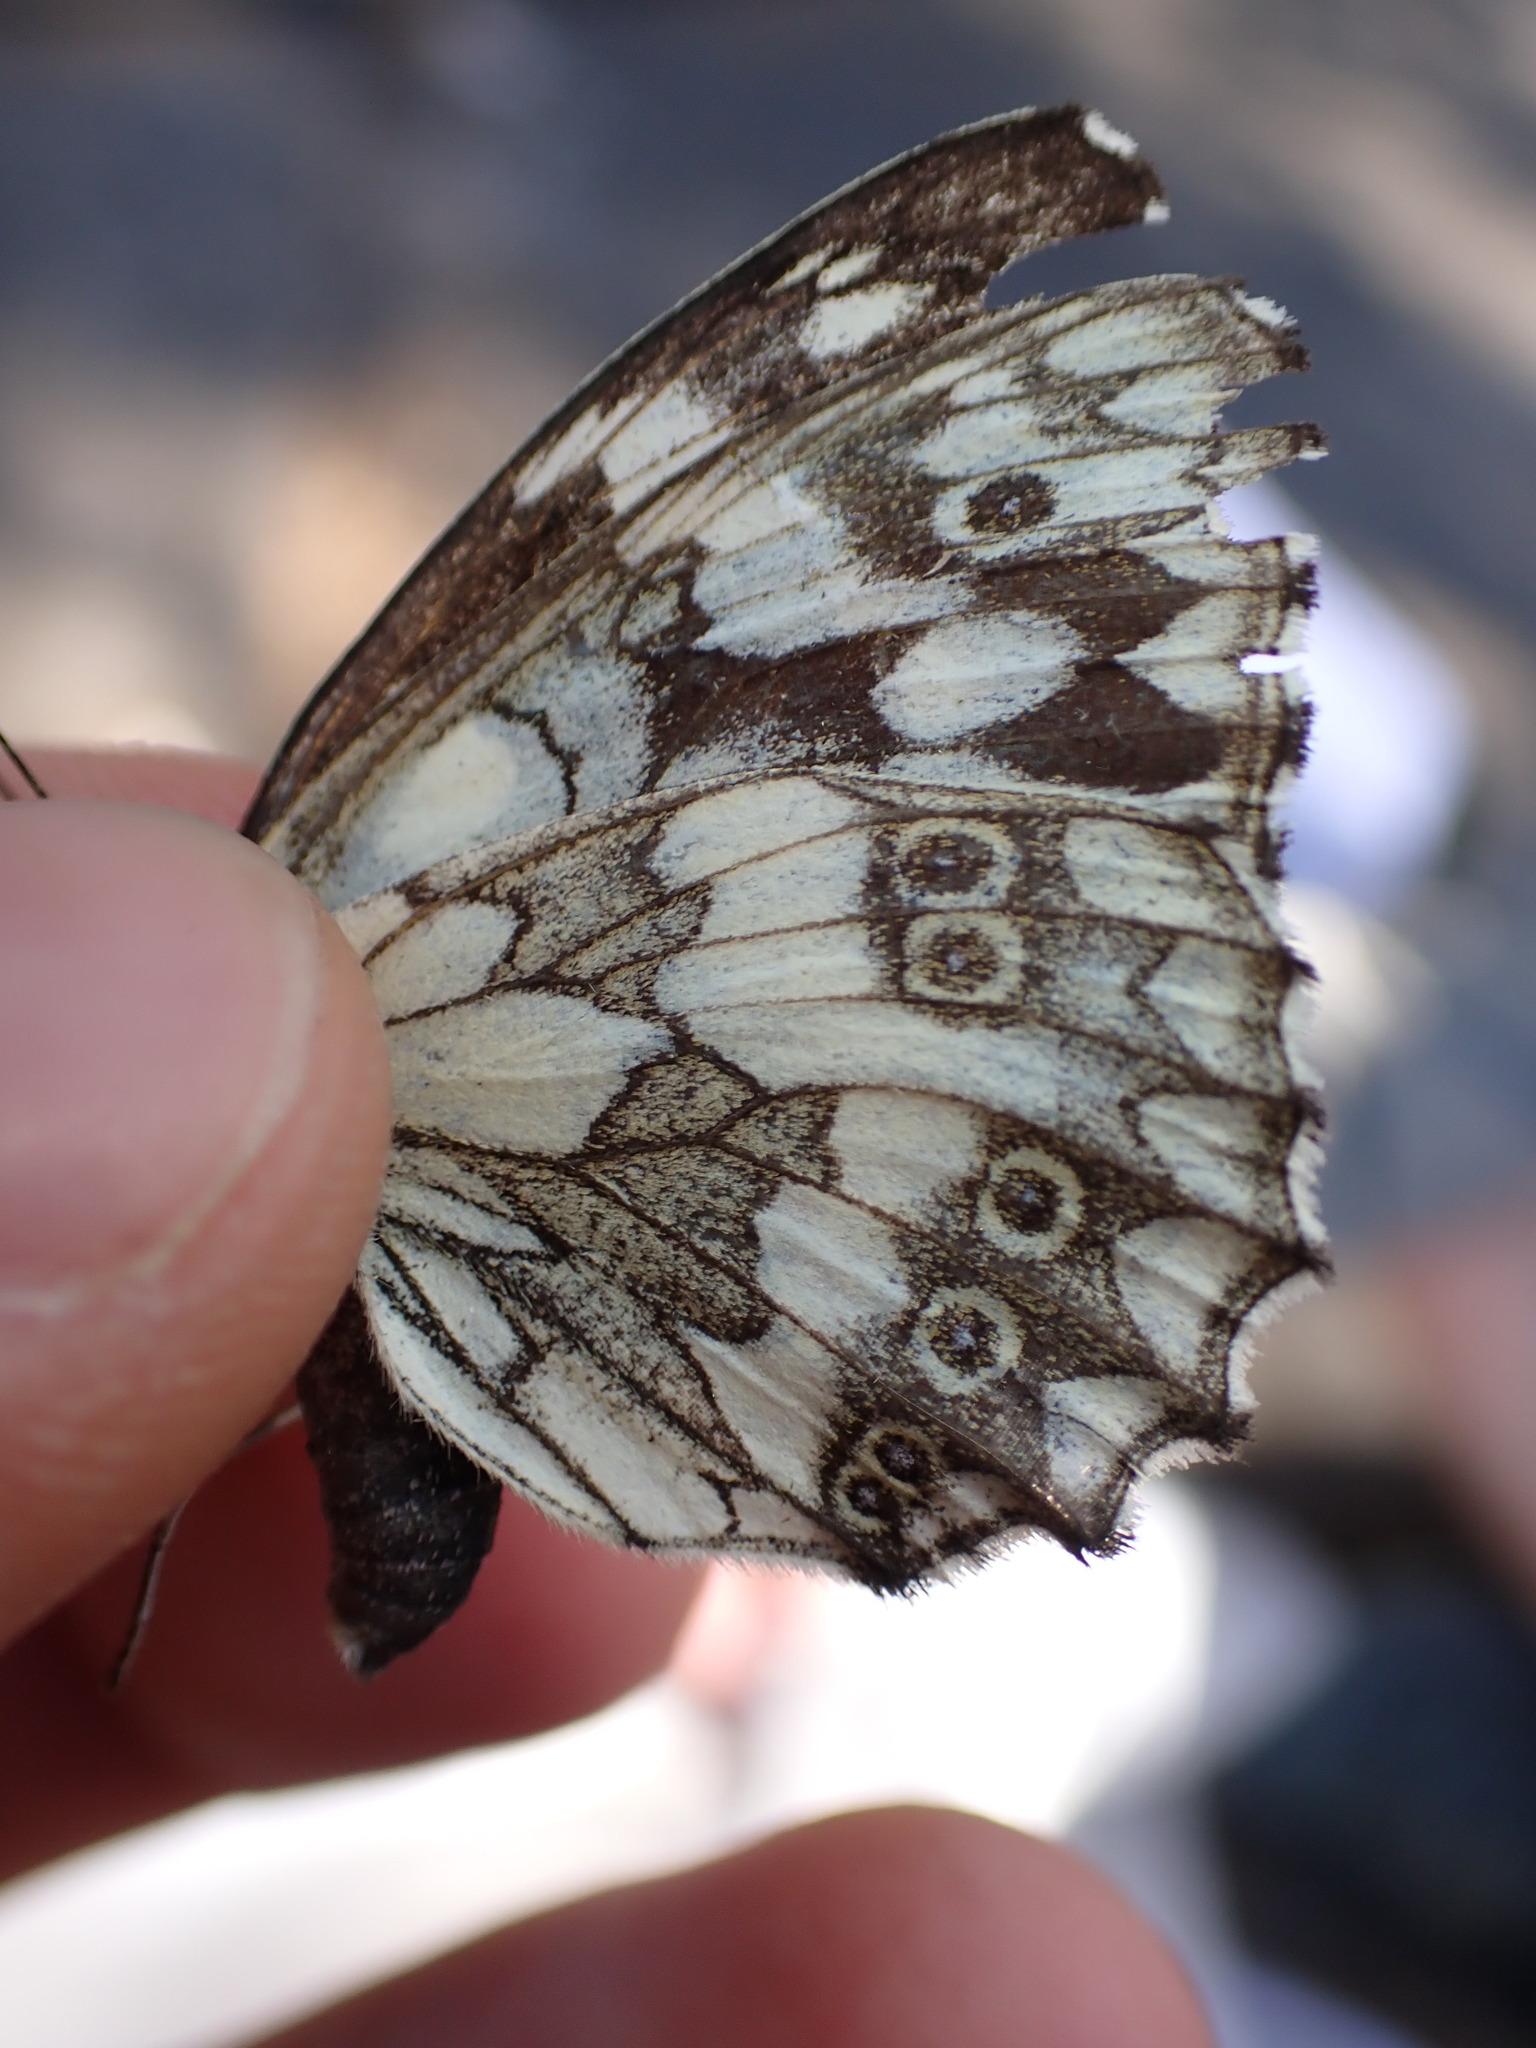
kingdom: Animalia
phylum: Arthropoda
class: Insecta
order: Lepidoptera
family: Nymphalidae
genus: Melanargia
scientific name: Melanargia galathea
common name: Marbled white
